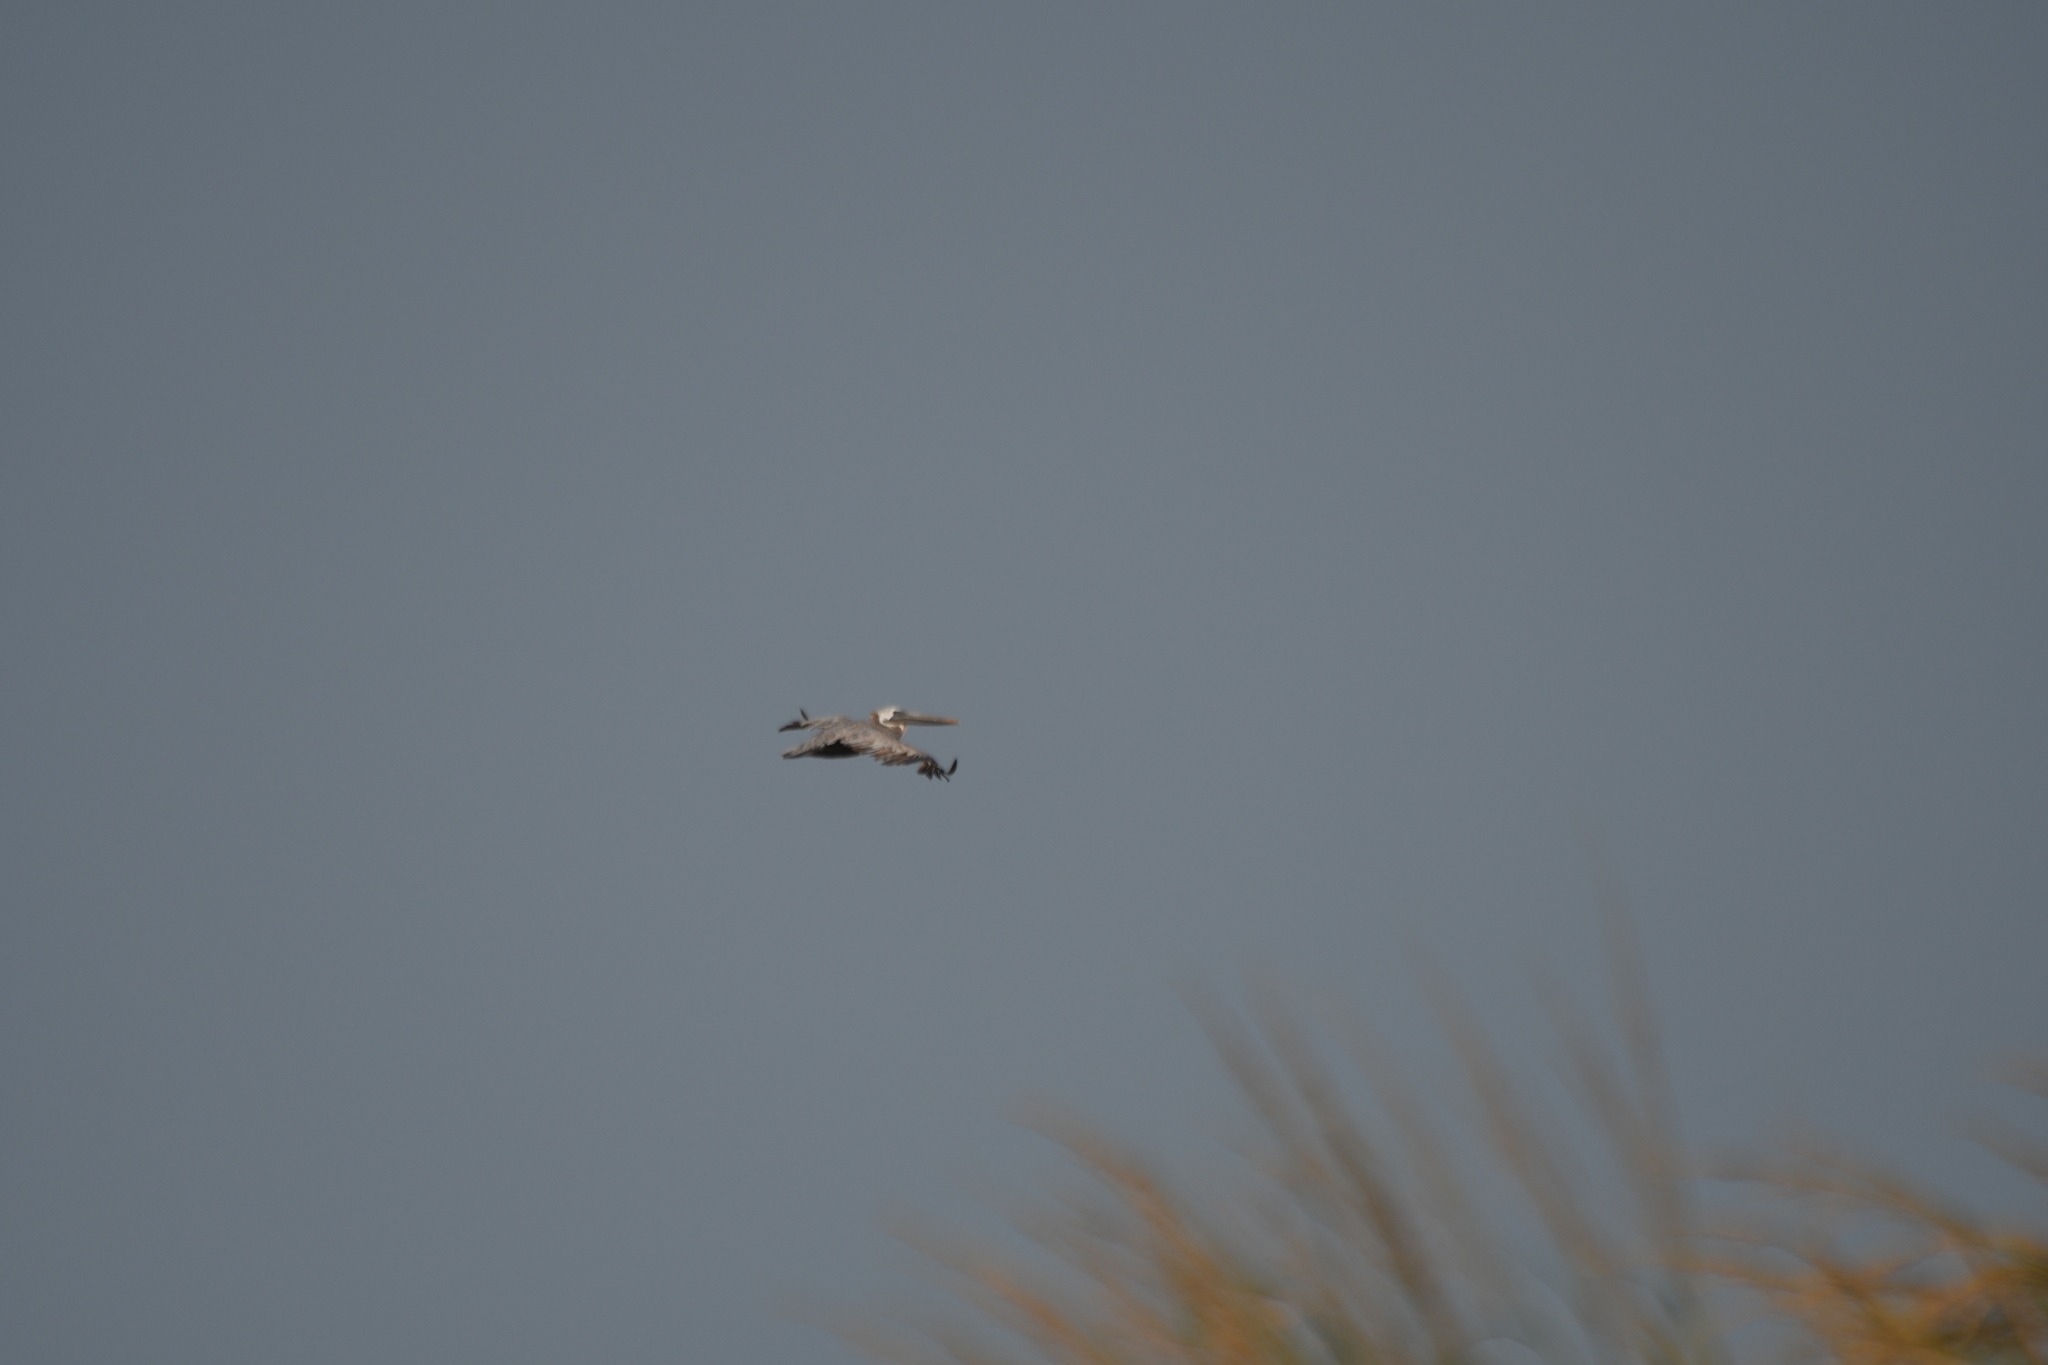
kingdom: Animalia
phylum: Chordata
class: Aves
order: Pelecaniformes
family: Pelecanidae
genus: Pelecanus
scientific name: Pelecanus occidentalis
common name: Brown pelican
